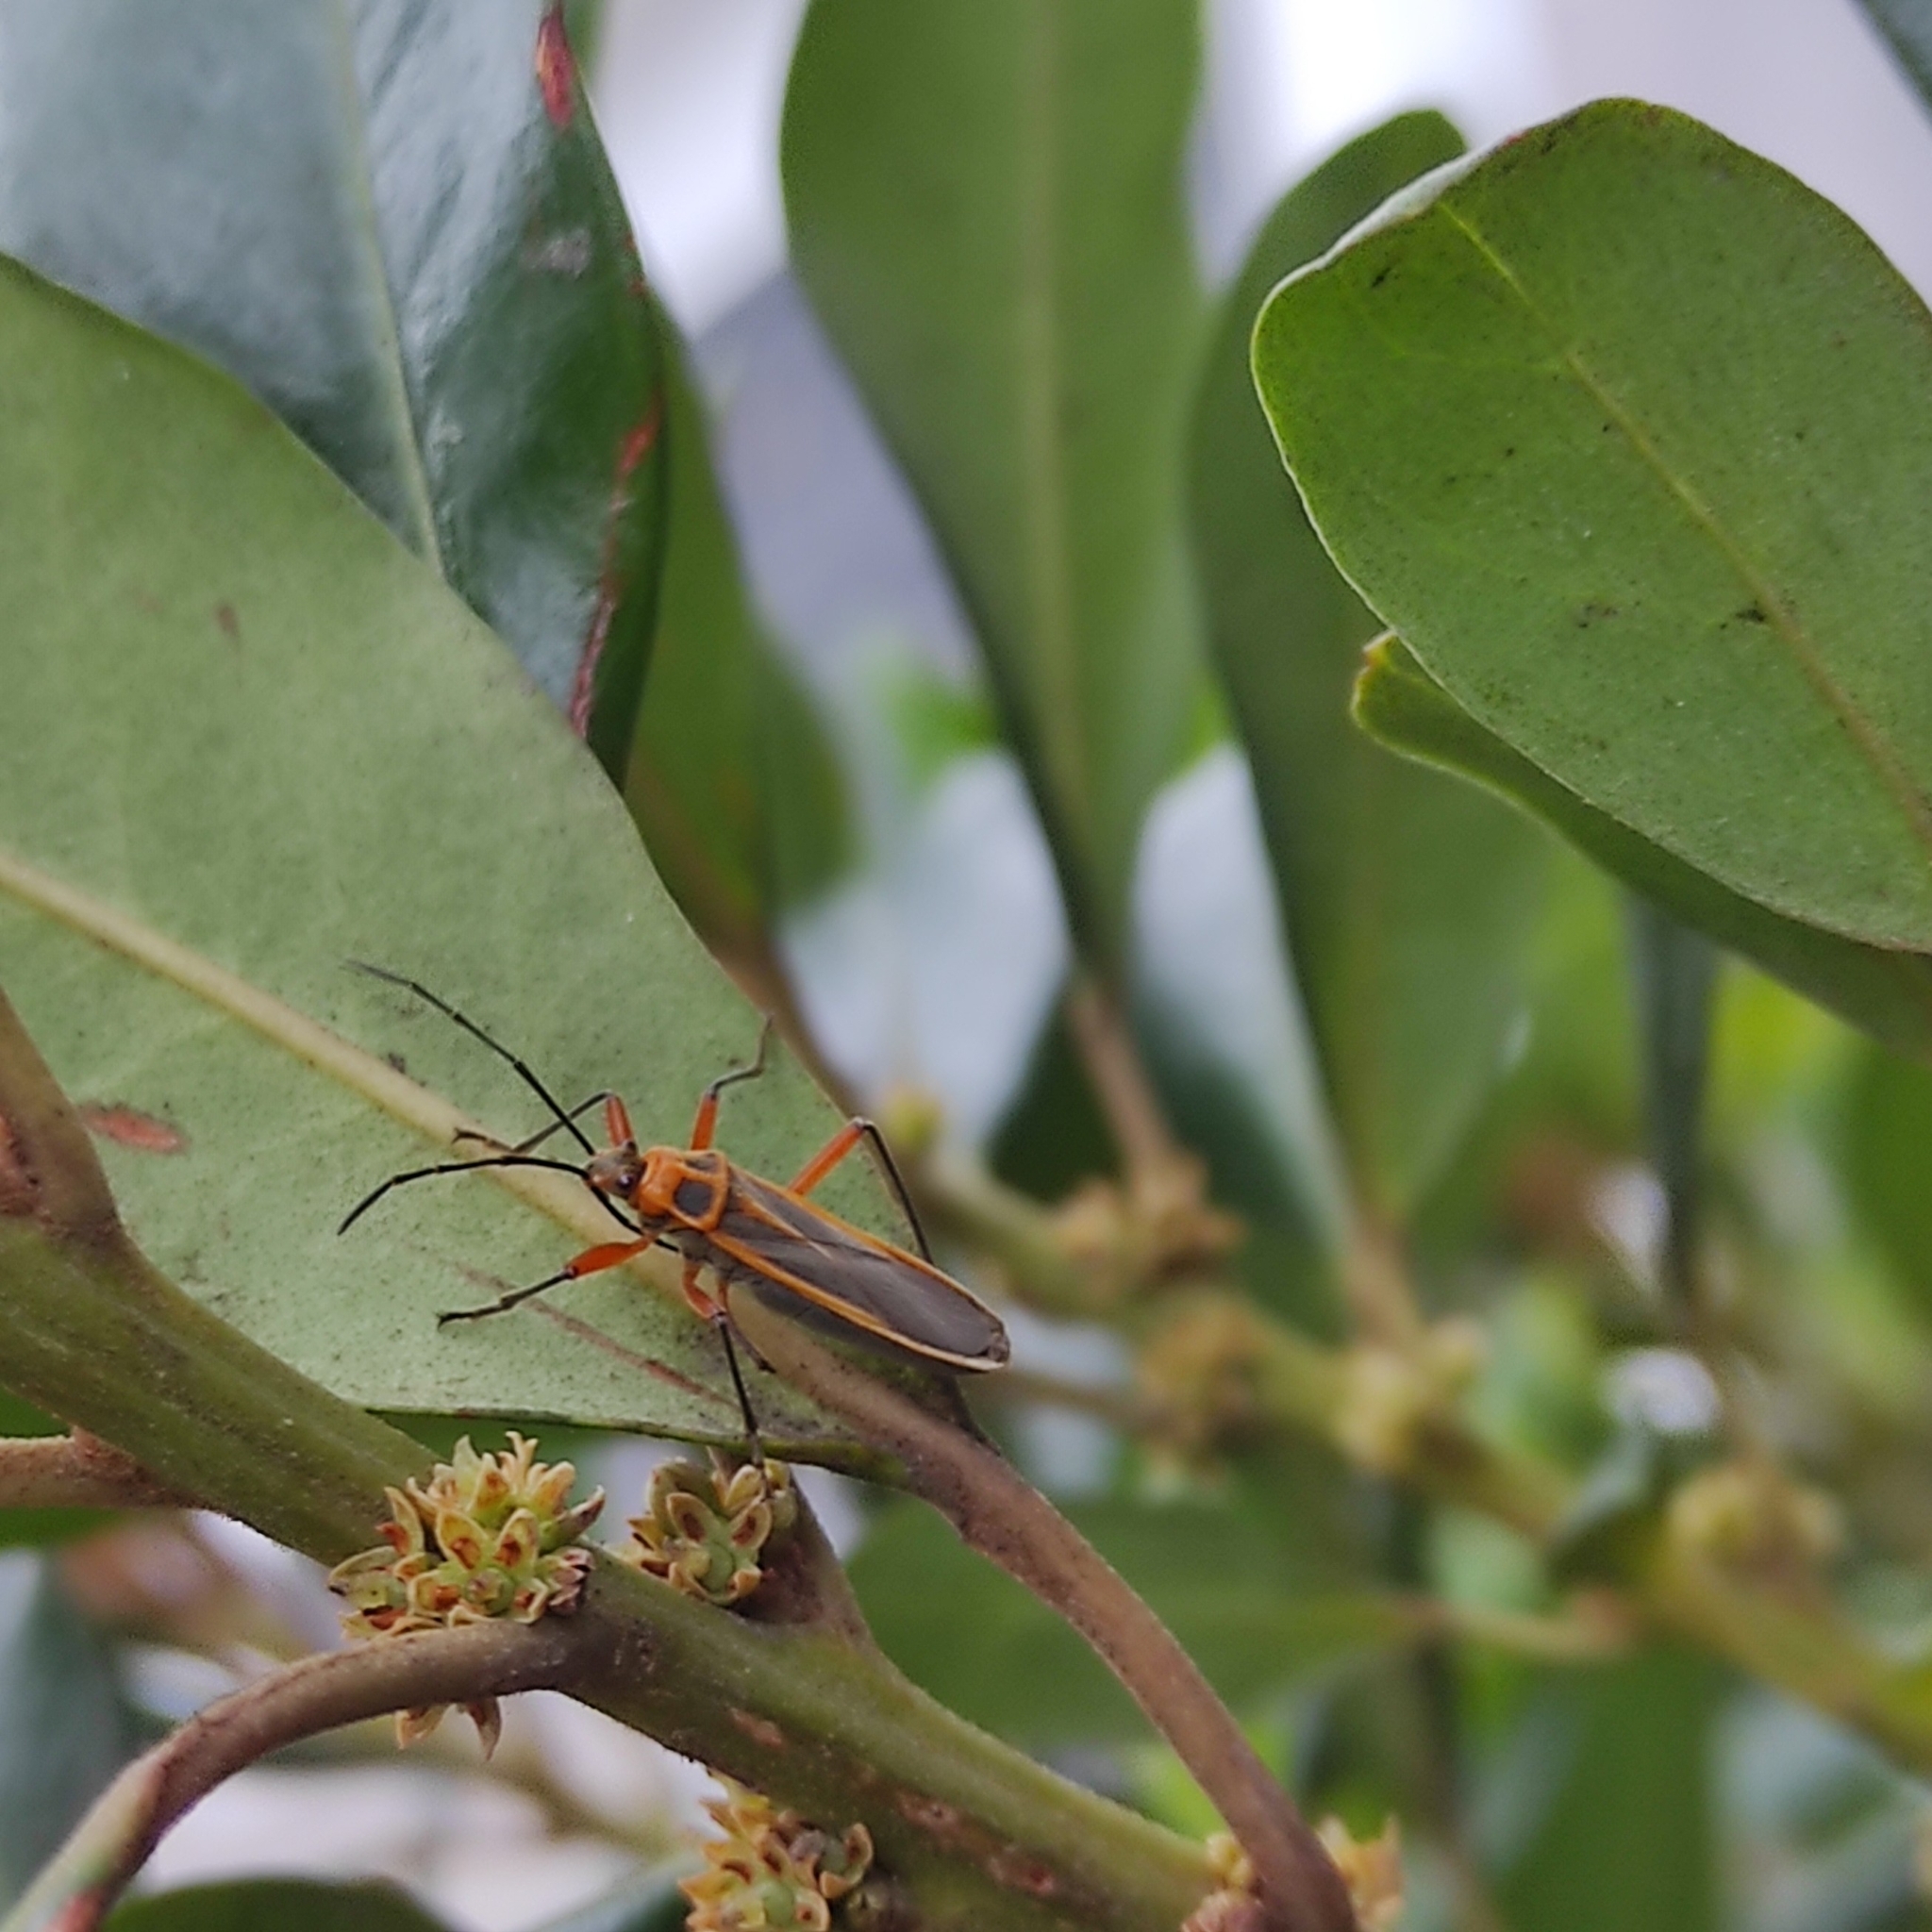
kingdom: Animalia
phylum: Arthropoda
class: Insecta
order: Hemiptera
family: Largidae
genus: Stenomacra
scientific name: Stenomacra marginella
